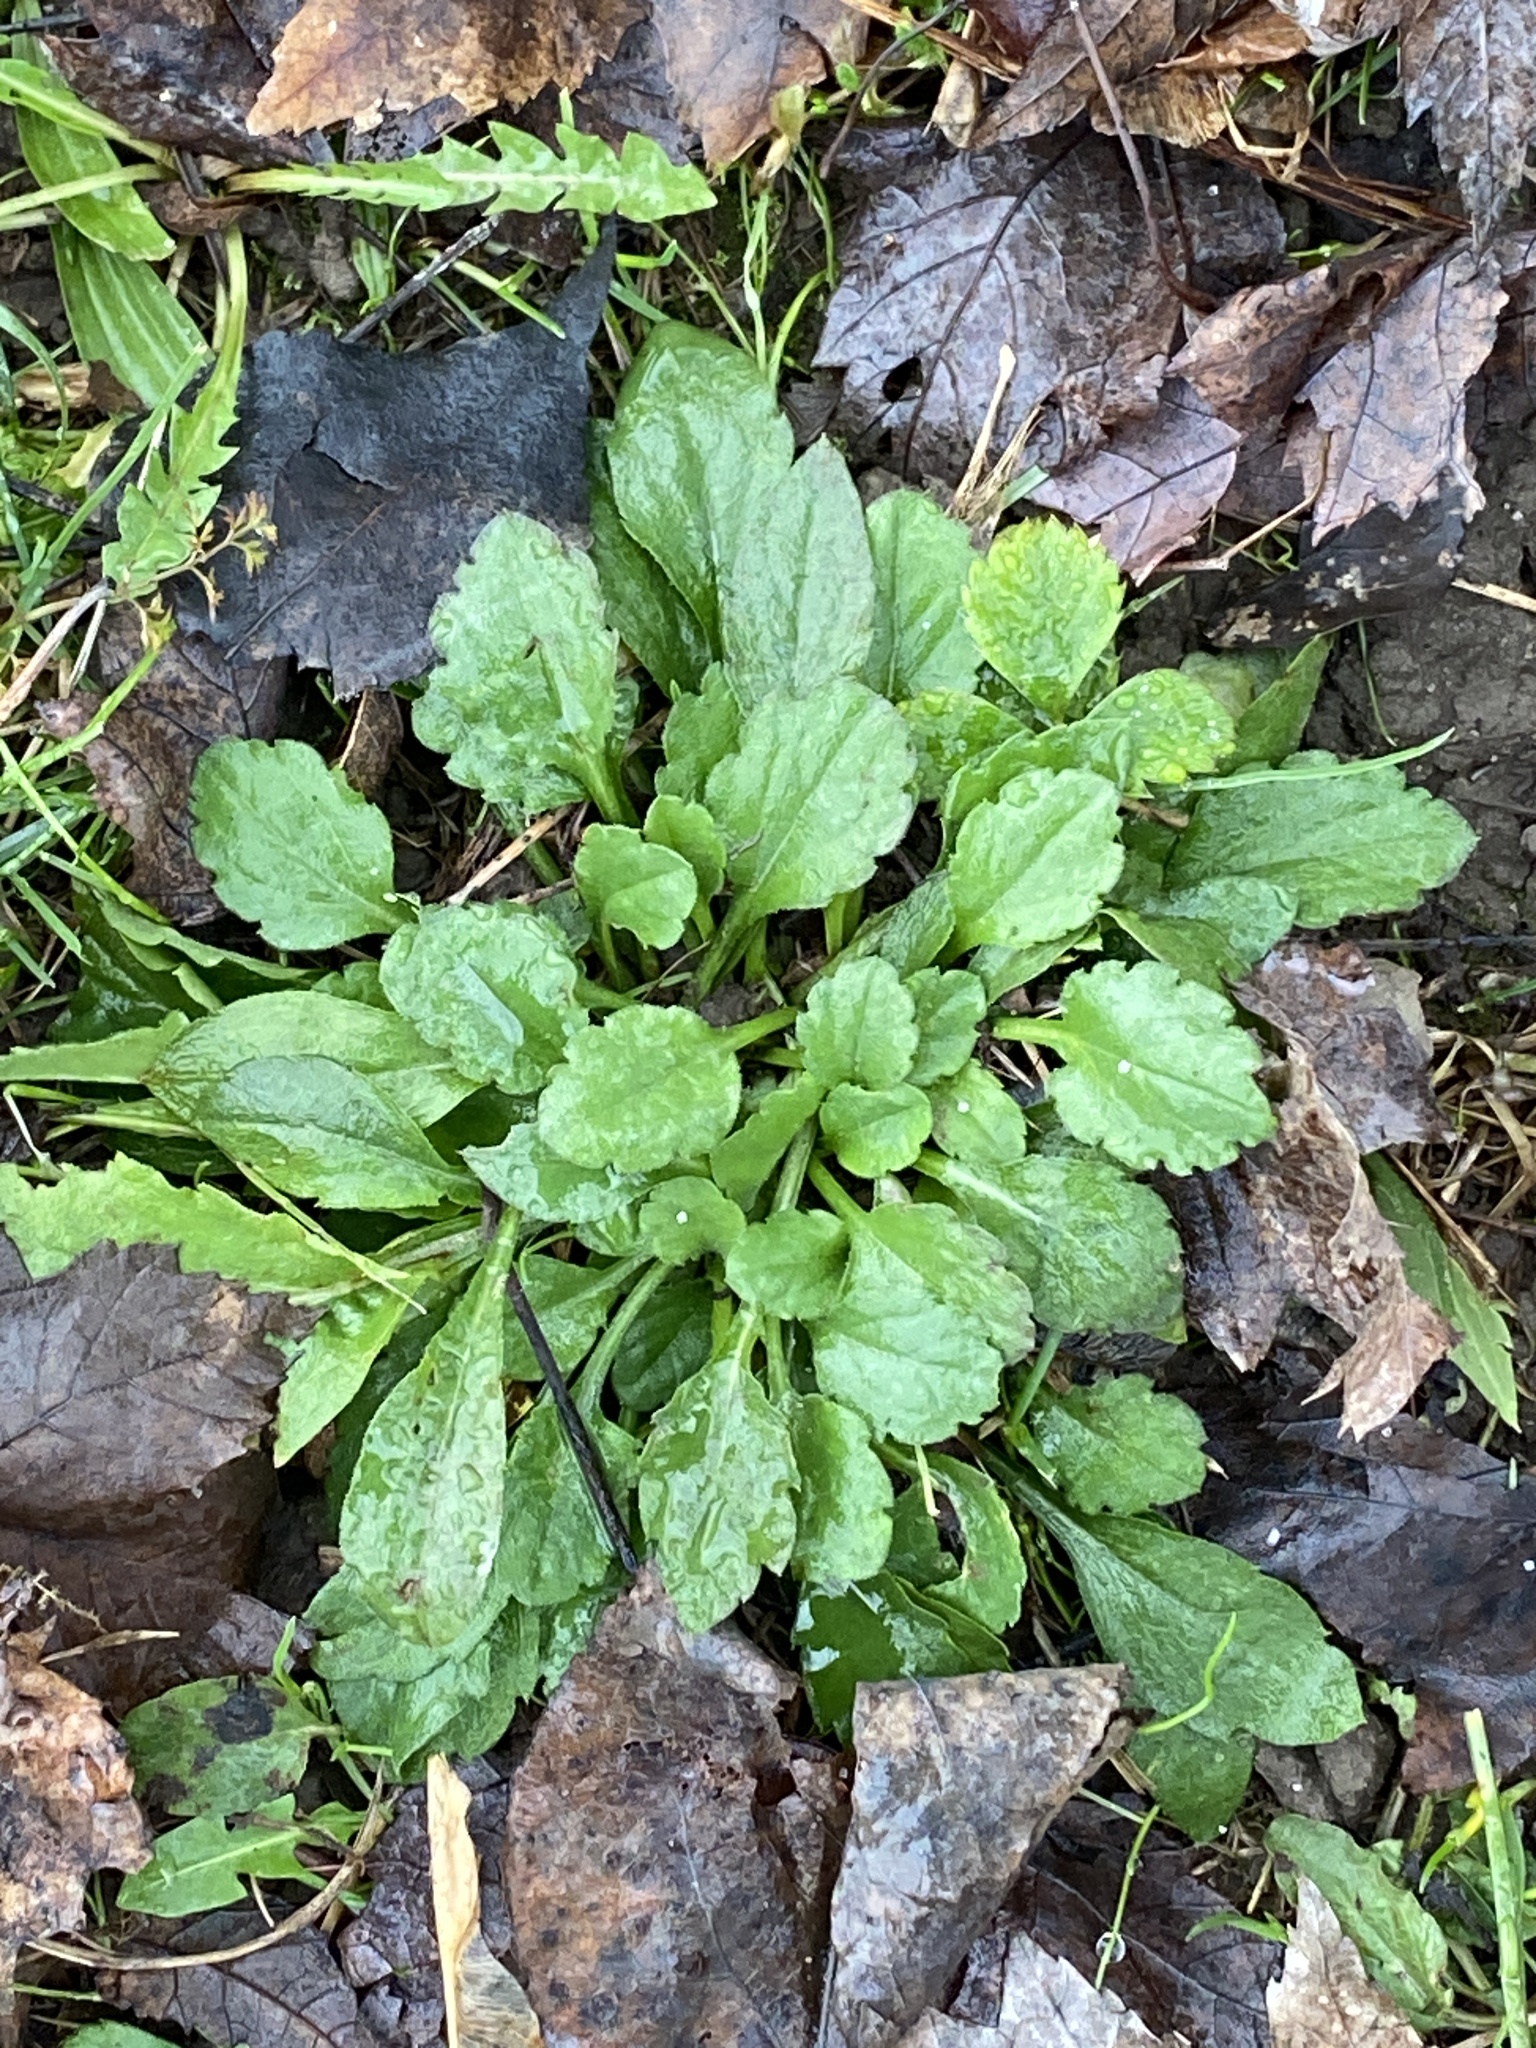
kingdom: Plantae
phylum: Tracheophyta
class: Magnoliopsida
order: Asterales
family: Asteraceae
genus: Erigeron
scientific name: Erigeron annuus
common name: Tall fleabane
